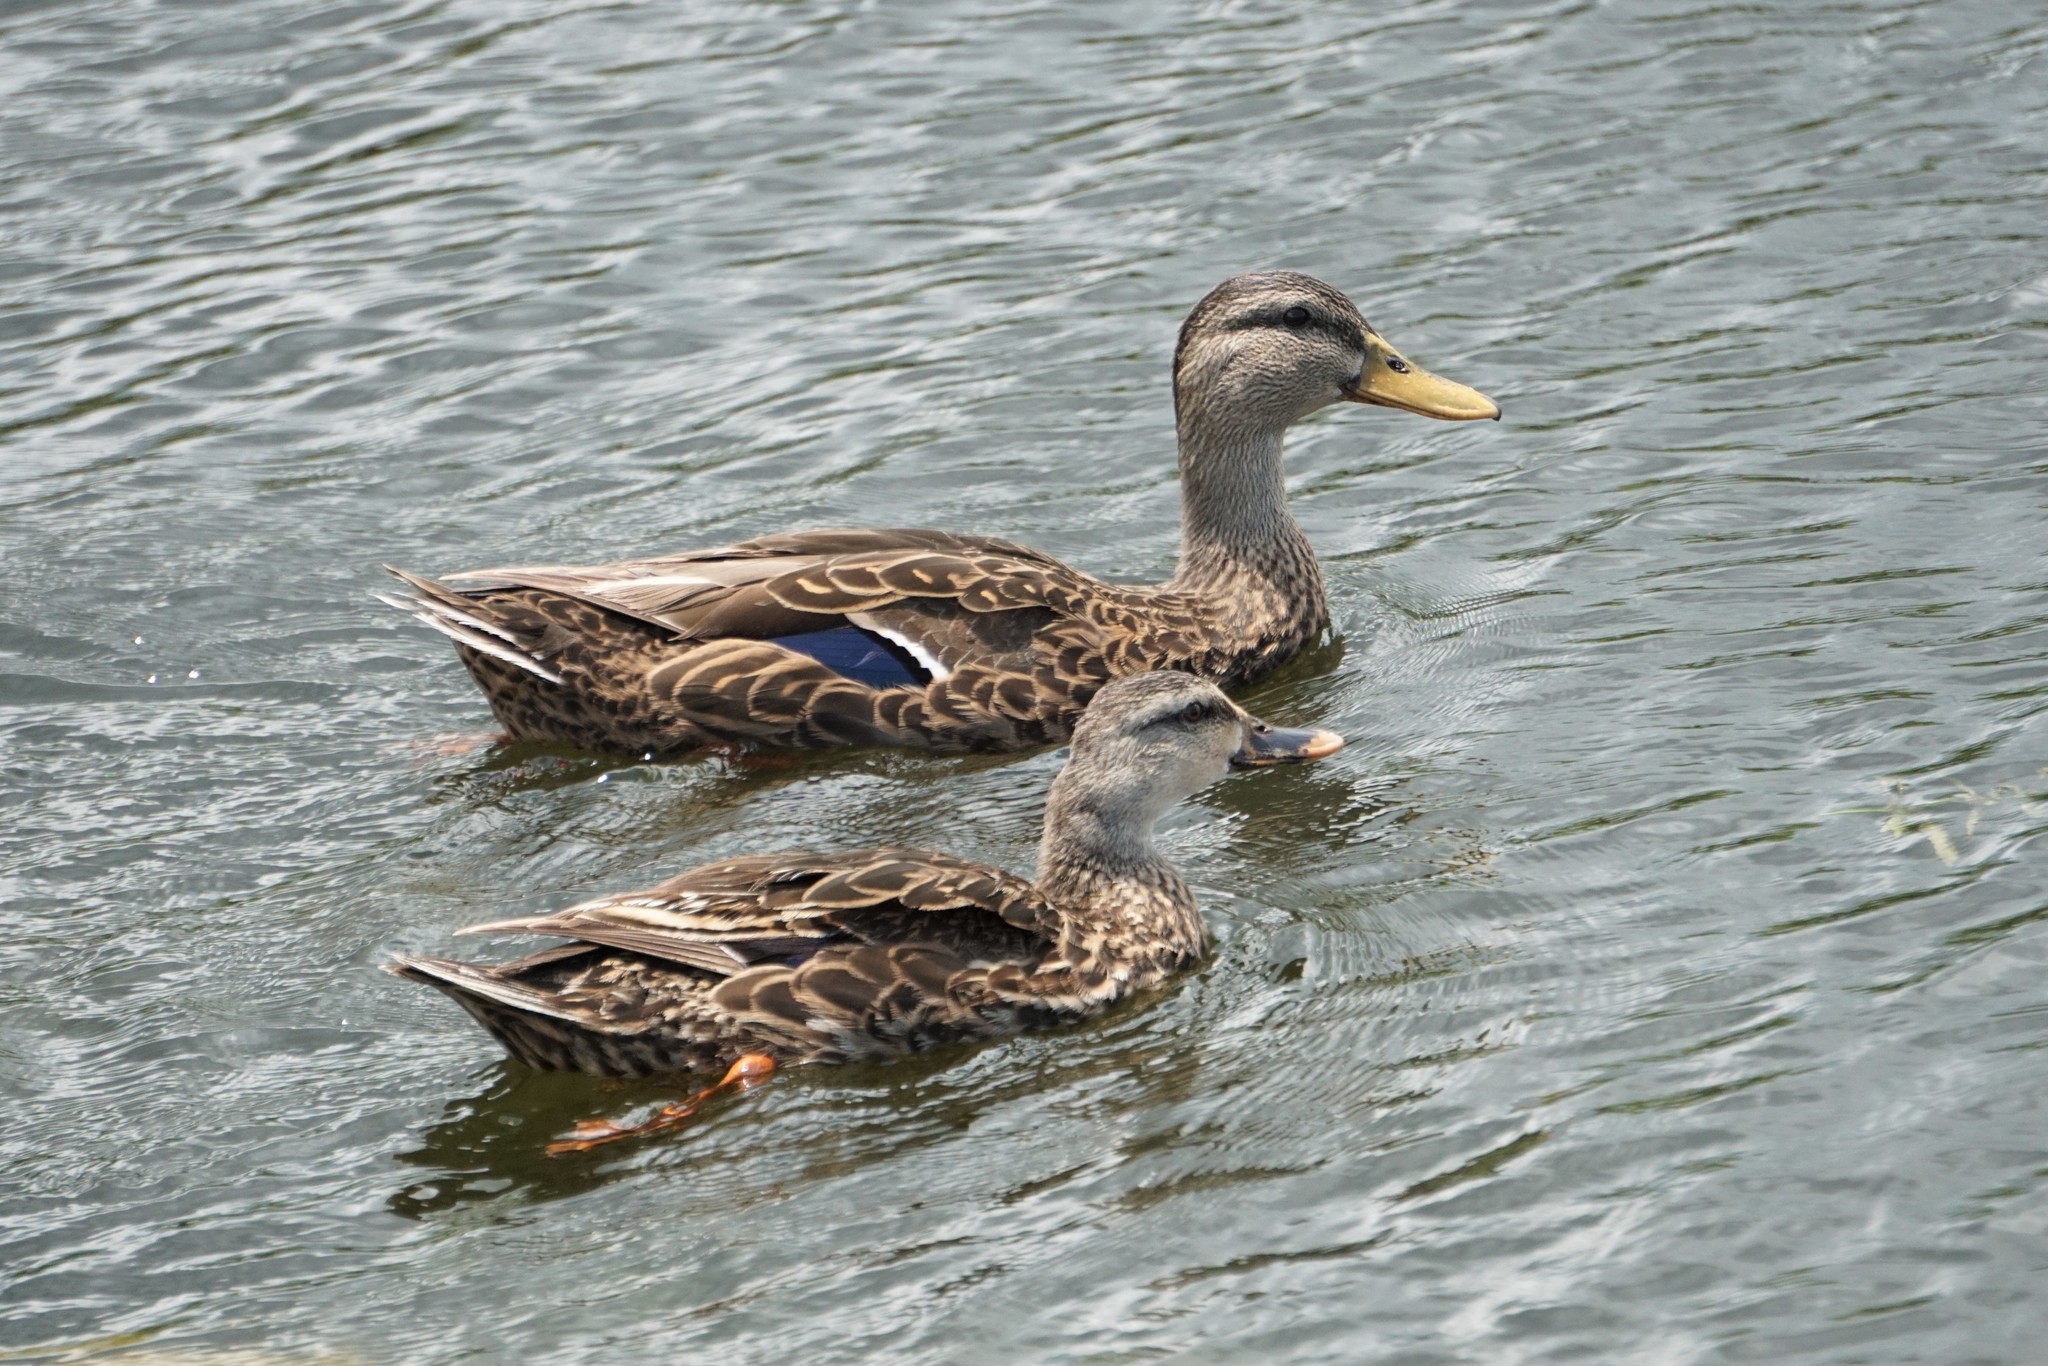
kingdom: Animalia
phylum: Chordata
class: Aves
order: Anseriformes
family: Anatidae
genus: Anas
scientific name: Anas
